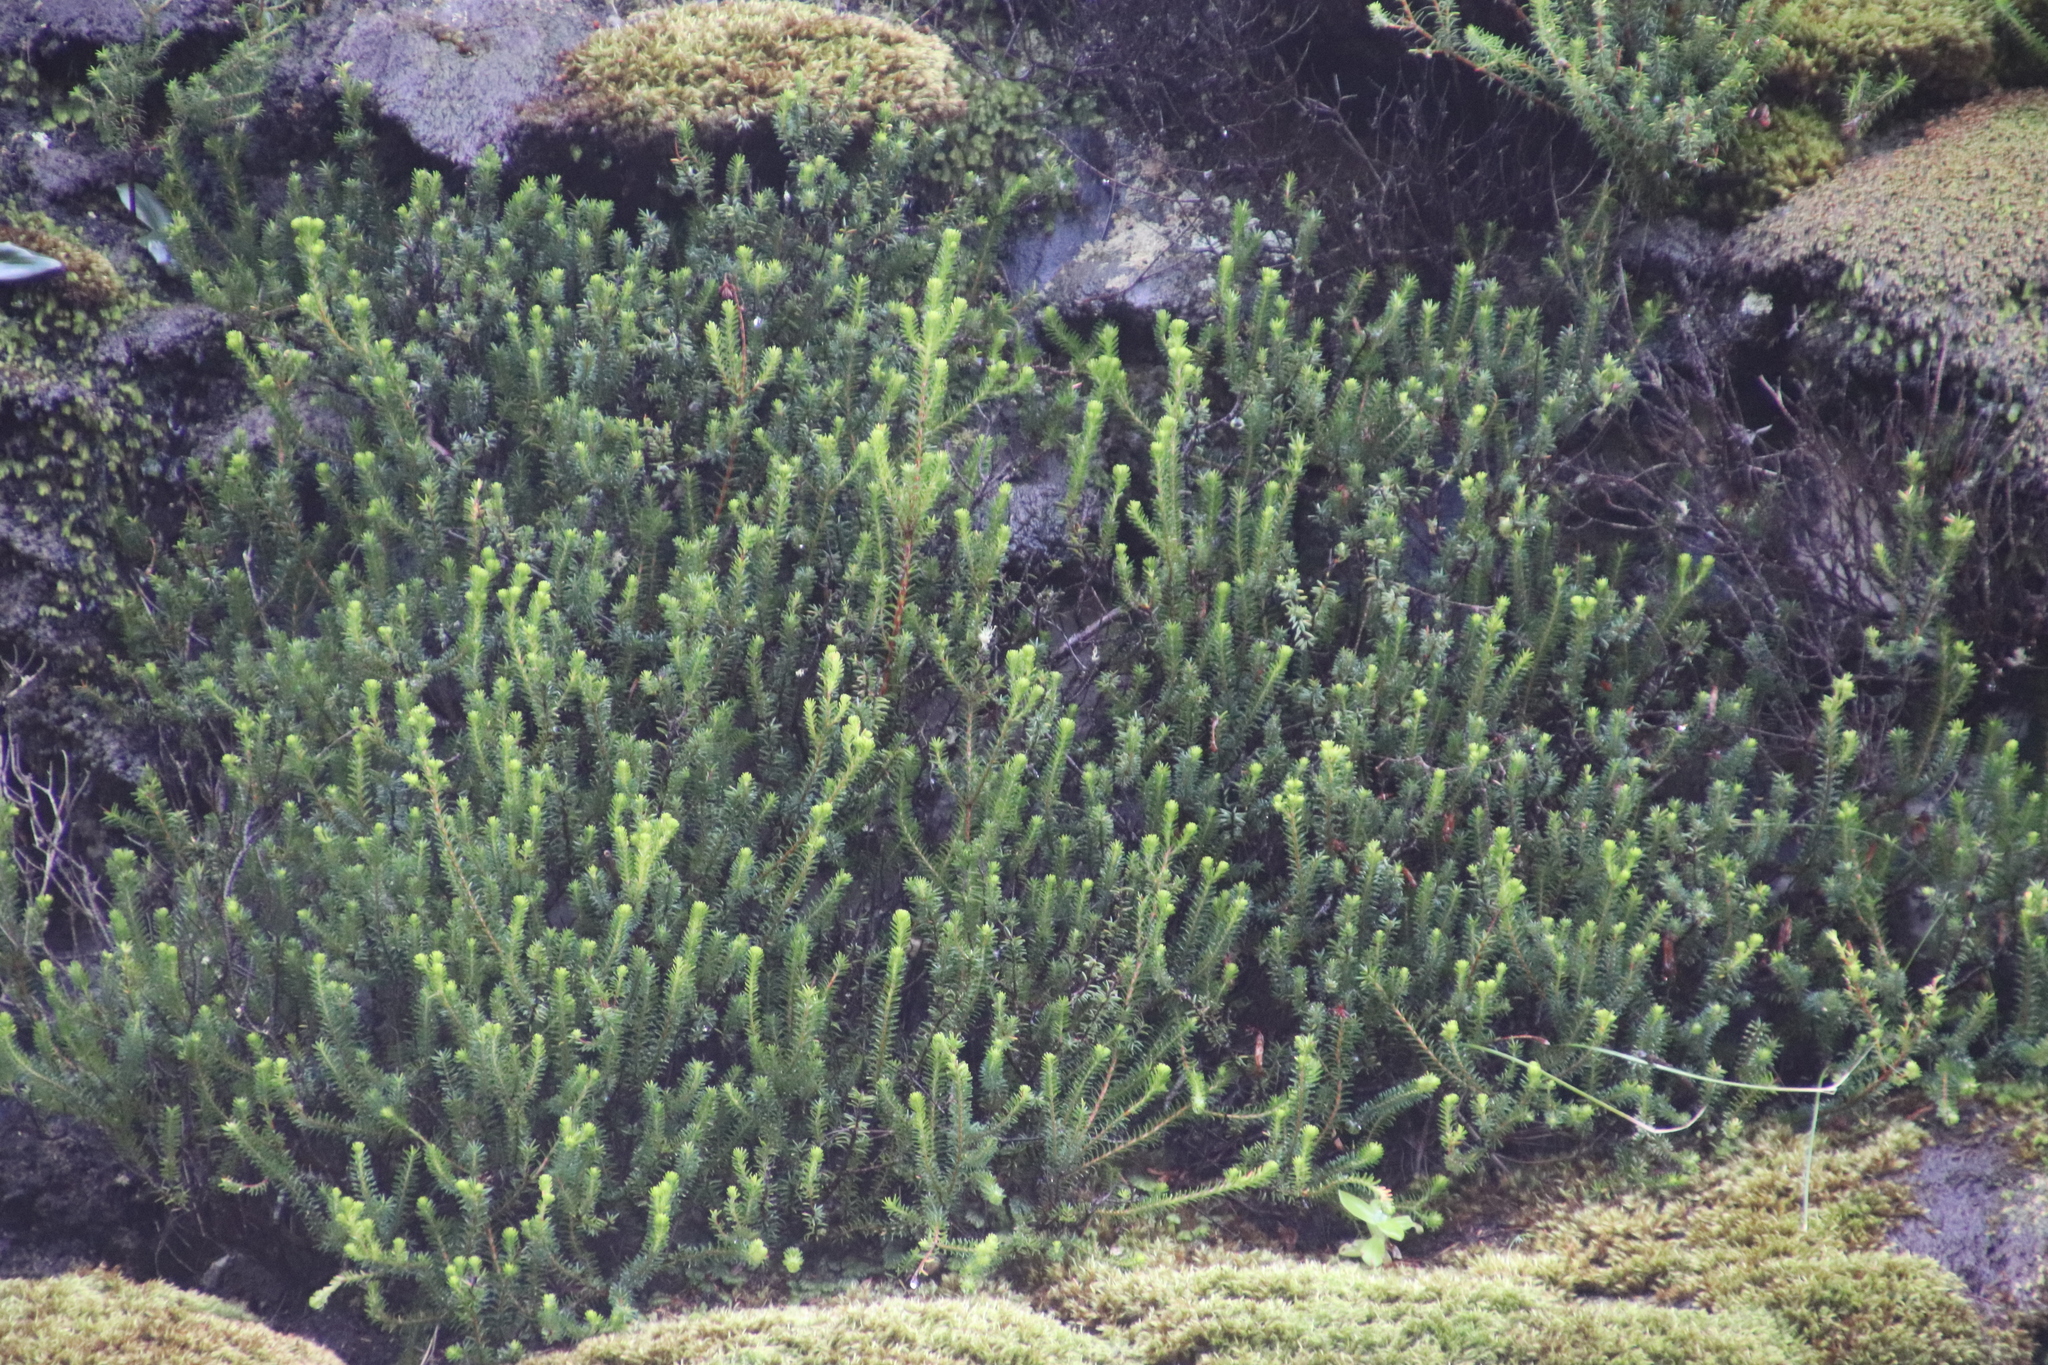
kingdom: Plantae
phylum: Tracheophyta
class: Magnoliopsida
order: Ericales
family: Ericaceae
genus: Erica
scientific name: Erica nevillei
